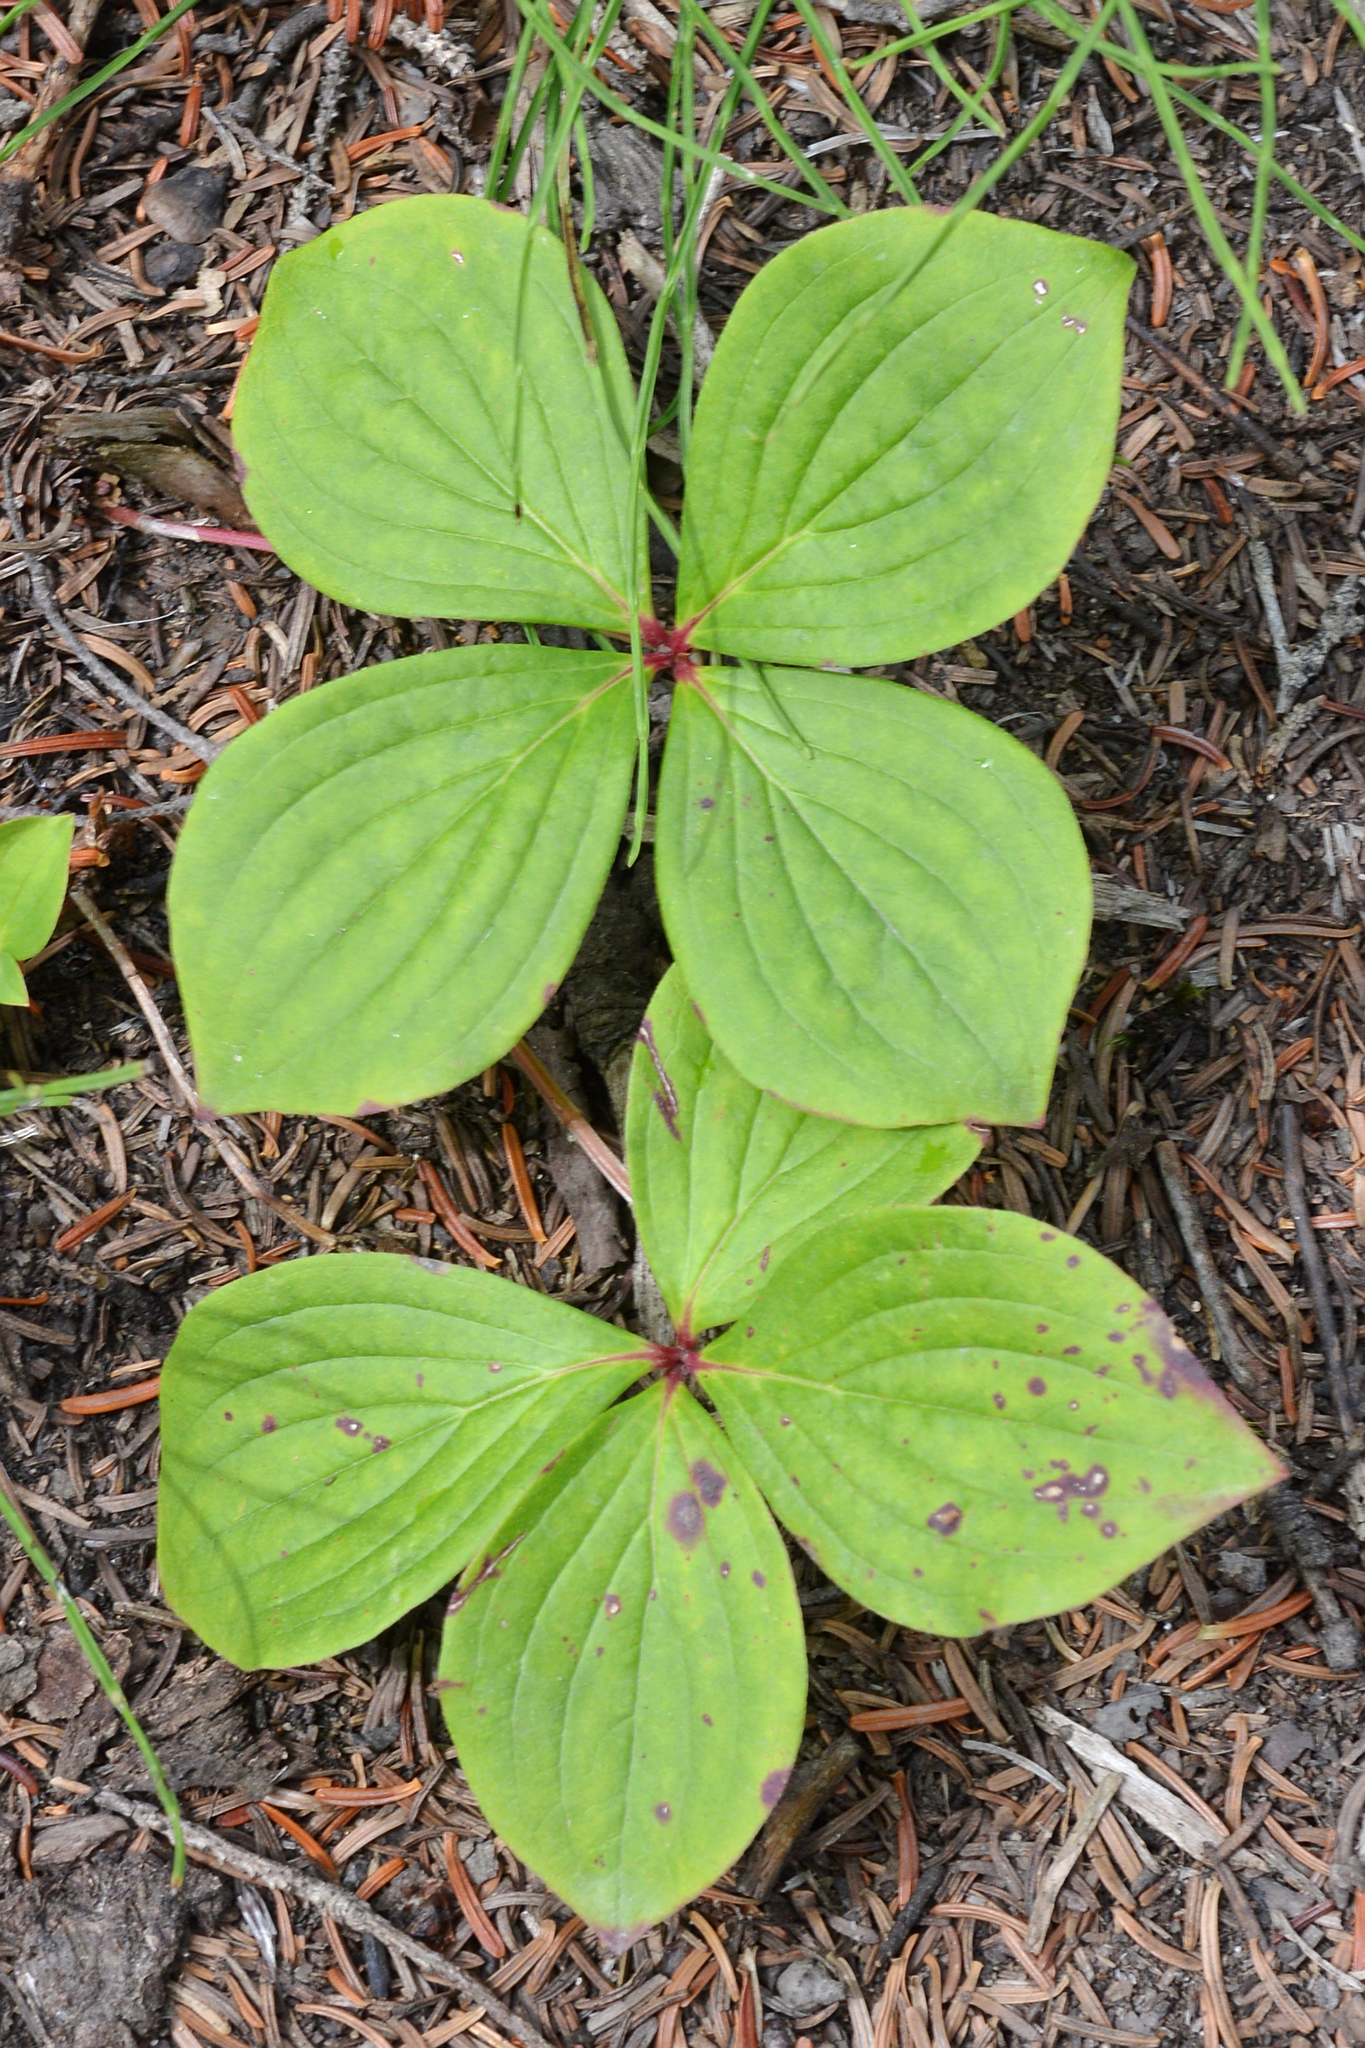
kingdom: Plantae
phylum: Tracheophyta
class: Magnoliopsida
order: Cornales
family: Cornaceae
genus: Cornus
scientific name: Cornus canadensis
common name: Creeping dogwood
